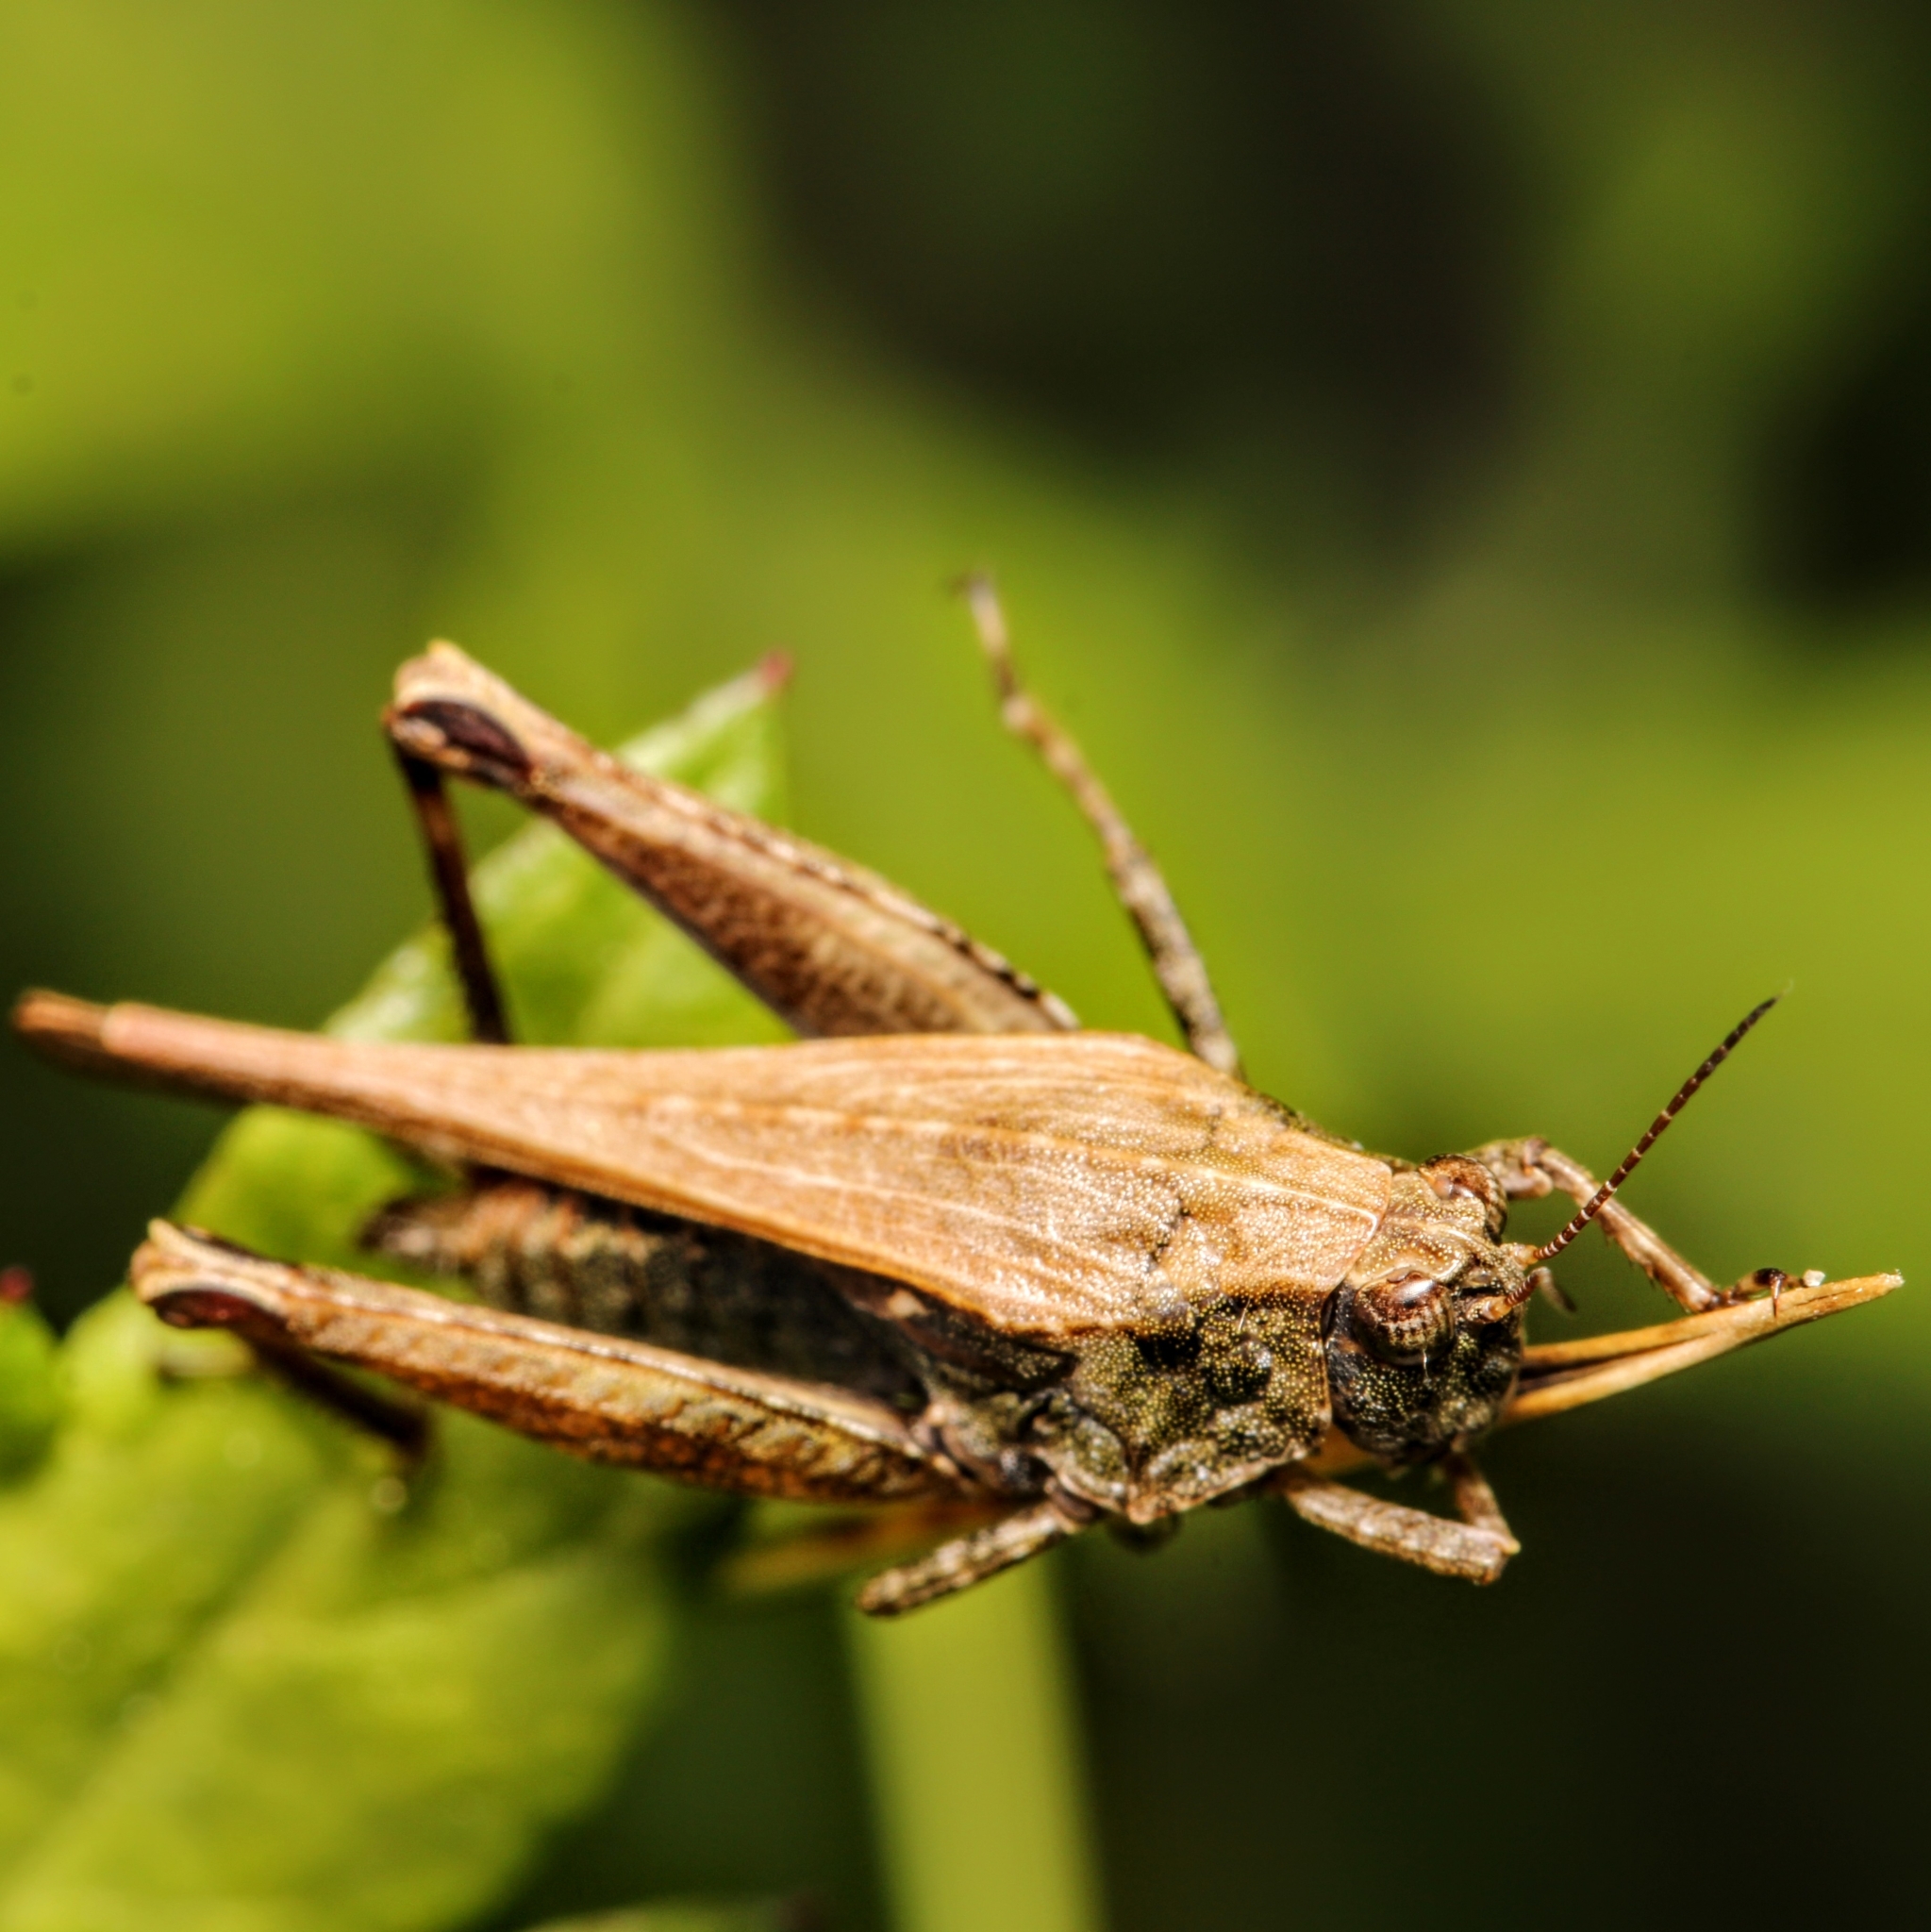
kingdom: Animalia
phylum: Arthropoda
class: Insecta
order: Orthoptera
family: Tetrigidae
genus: Tettigidea
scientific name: Tettigidea laterale
